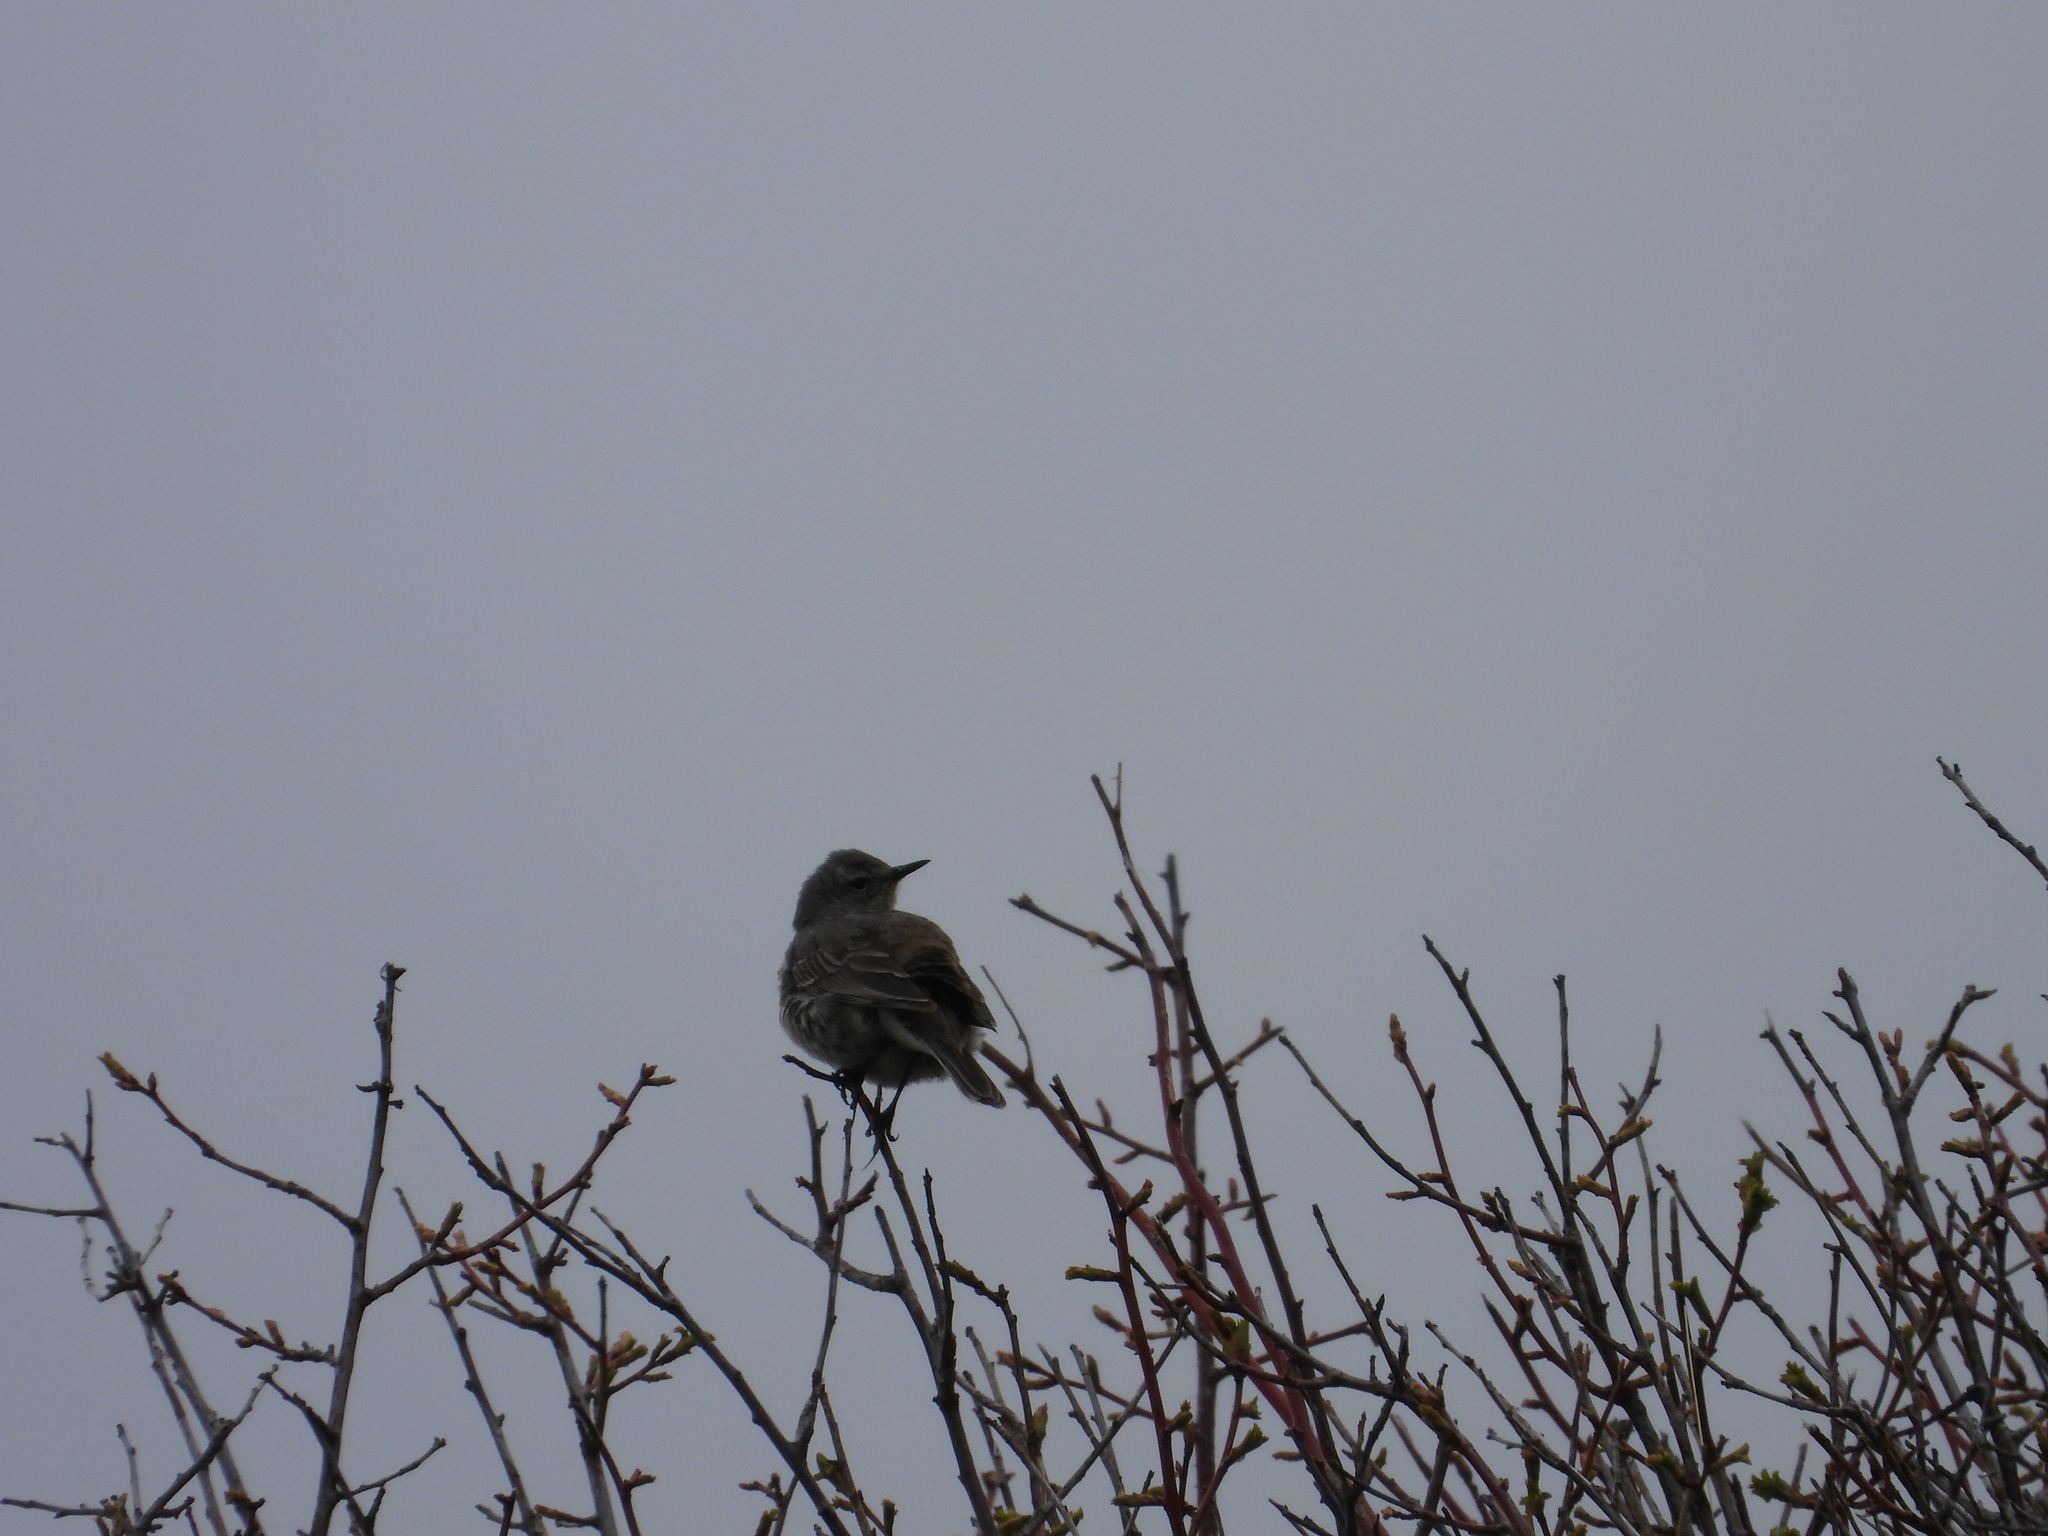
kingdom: Animalia
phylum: Chordata
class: Aves
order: Passeriformes
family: Motacillidae
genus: Anthus
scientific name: Anthus spinoletta
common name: Water pipit
